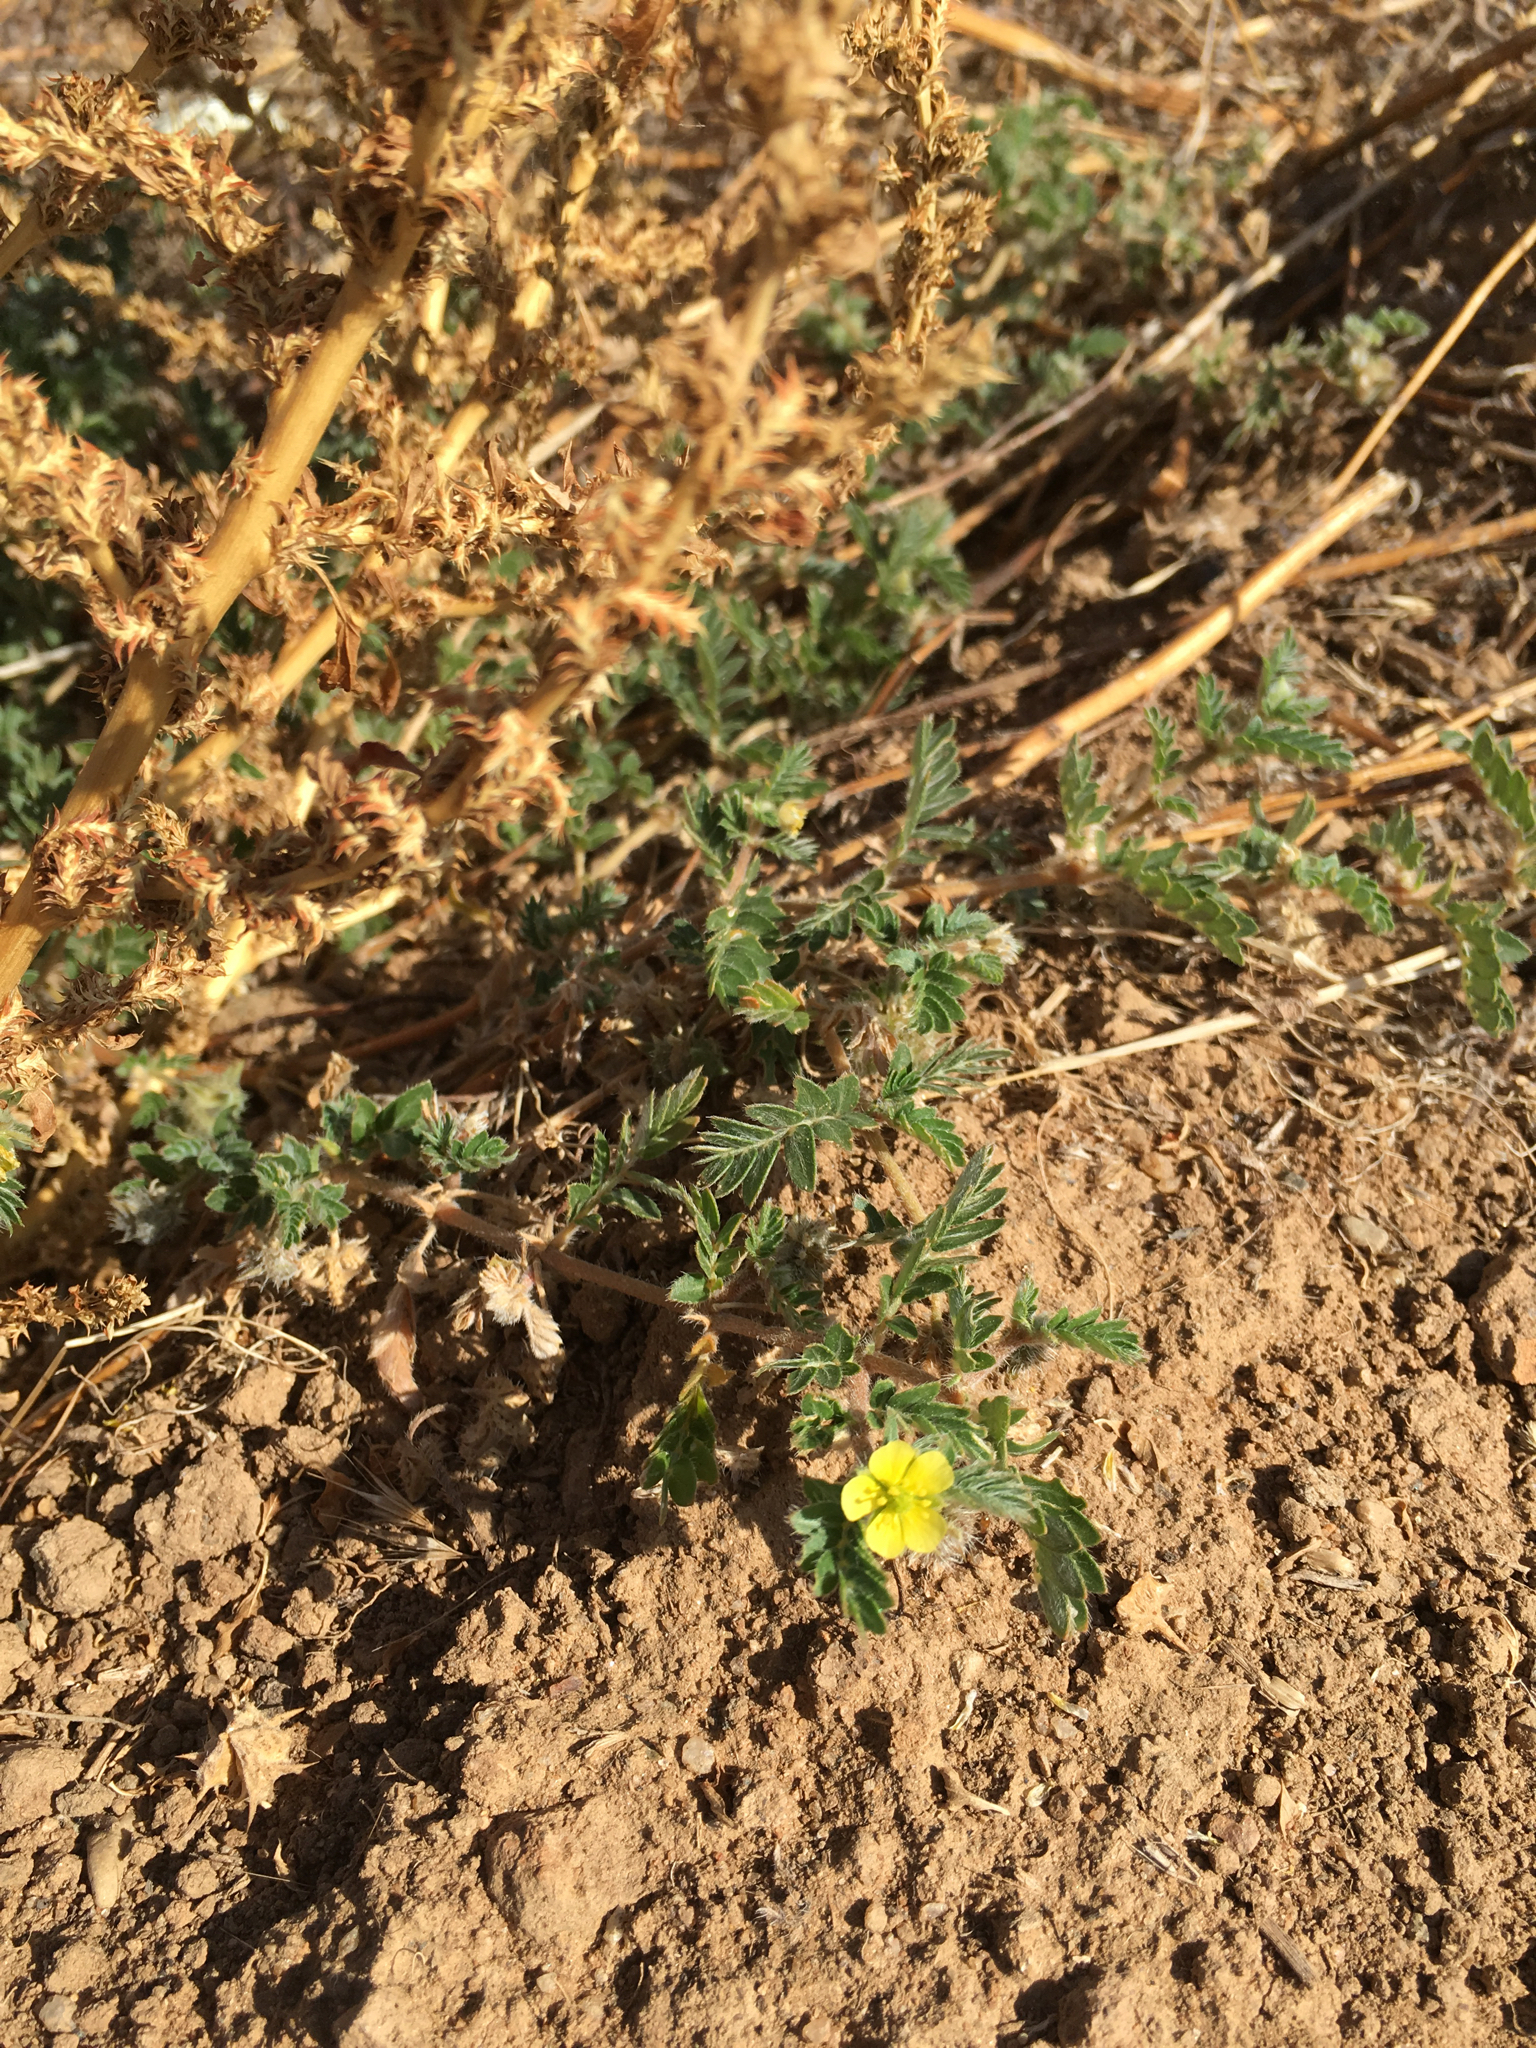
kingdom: Plantae
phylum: Tracheophyta
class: Magnoliopsida
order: Zygophyllales
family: Zygophyllaceae
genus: Tribulus
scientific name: Tribulus terrestris
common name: Puncturevine
